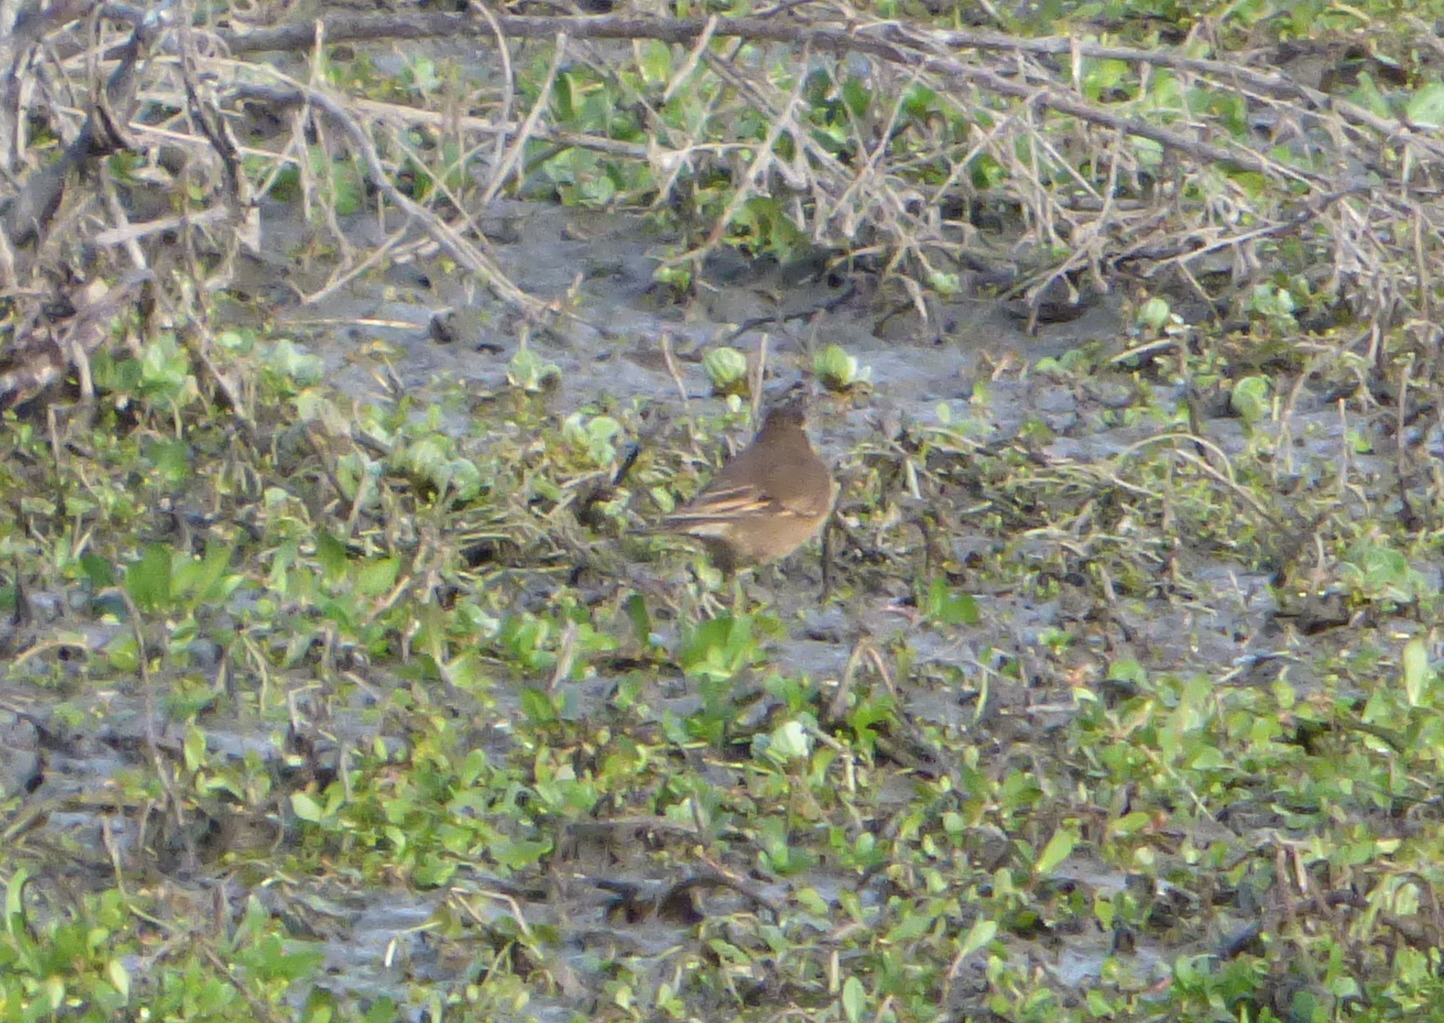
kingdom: Animalia
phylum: Chordata
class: Aves
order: Passeriformes
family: Furnariidae
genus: Cinclodes
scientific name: Cinclodes fuscus
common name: Buff-winged cinclodes
